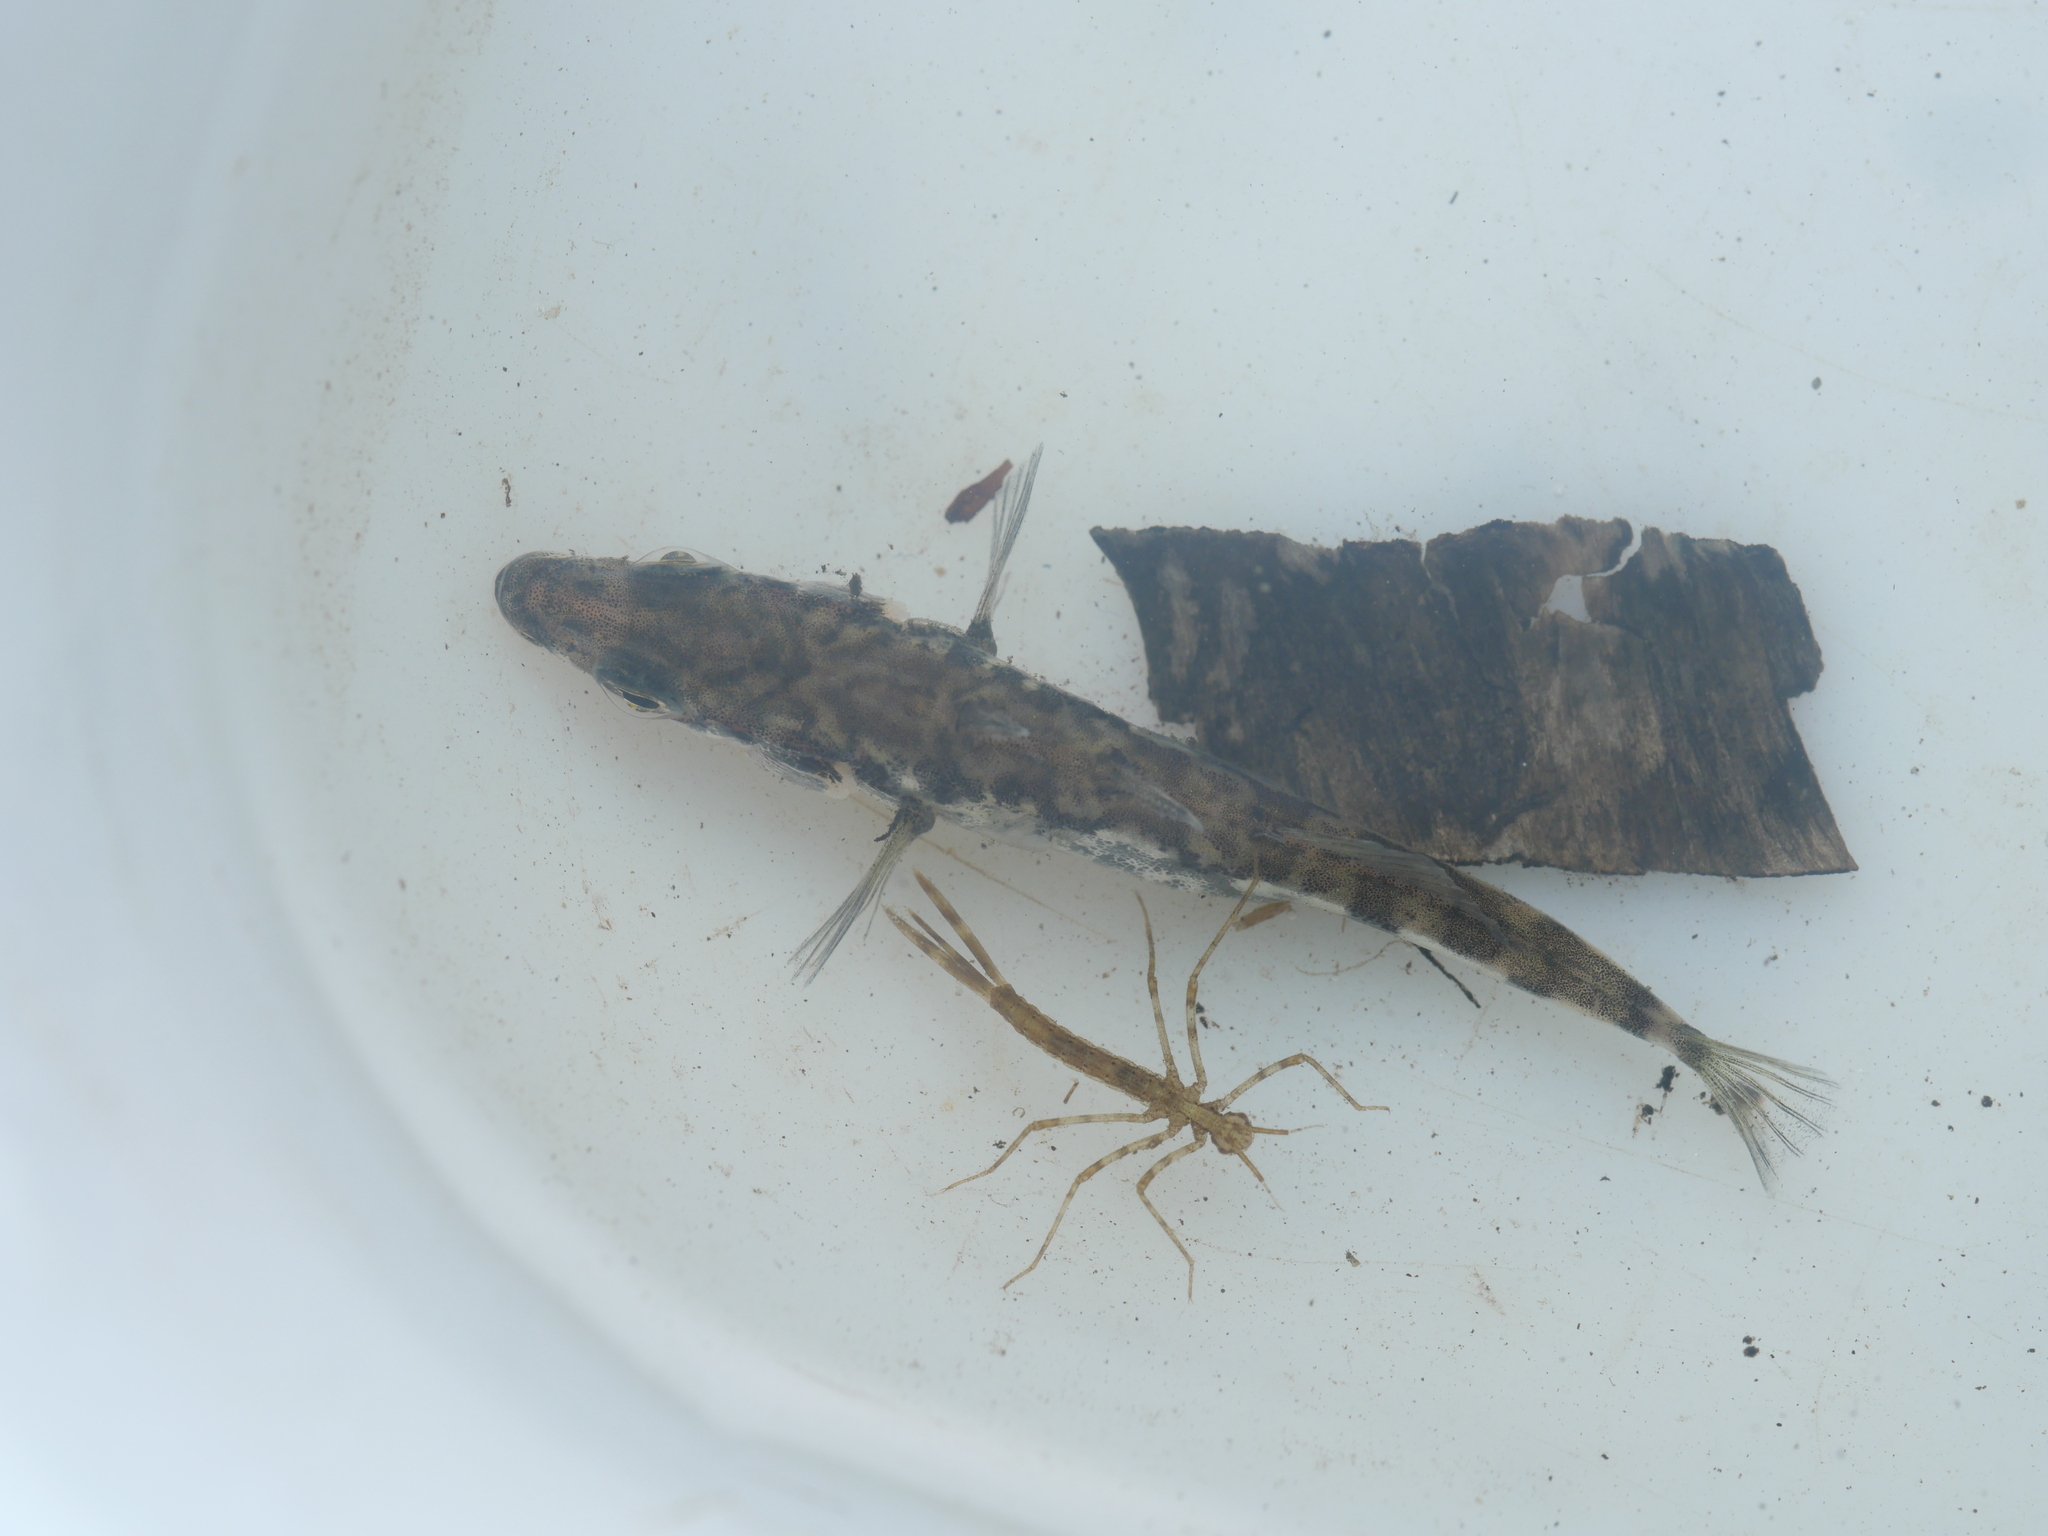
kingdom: Animalia
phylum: Chordata
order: Gasterosteiformes
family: Gasterosteidae
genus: Gasterosteus
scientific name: Gasterosteus aculeatus
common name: Three-spined stickleback
